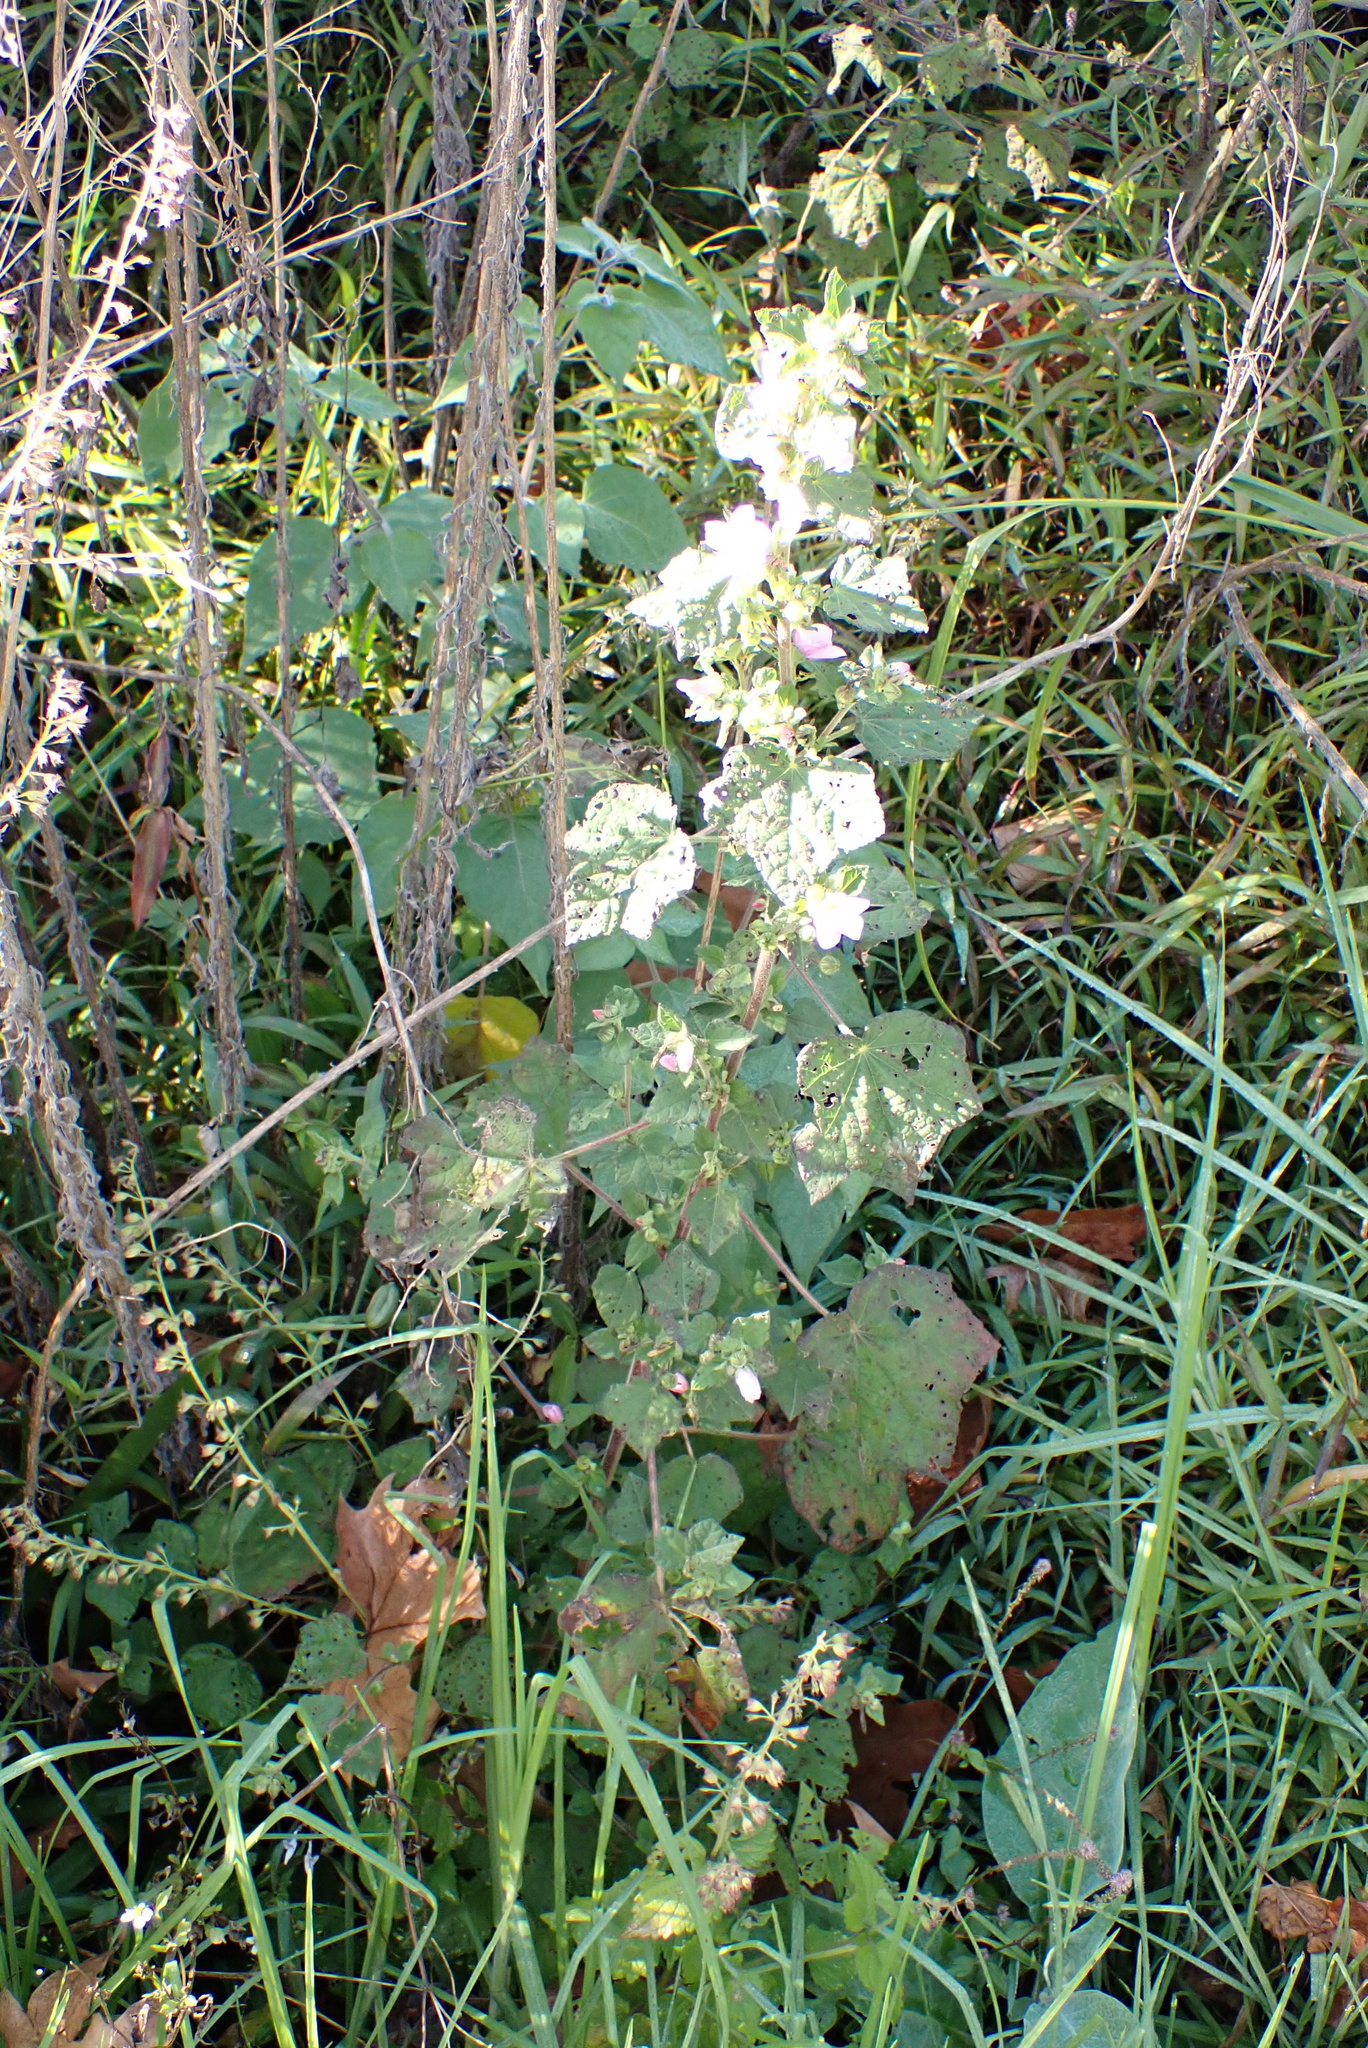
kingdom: Plantae
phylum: Tracheophyta
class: Magnoliopsida
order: Malvales
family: Malvaceae
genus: Pavonia
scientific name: Pavonia columella
